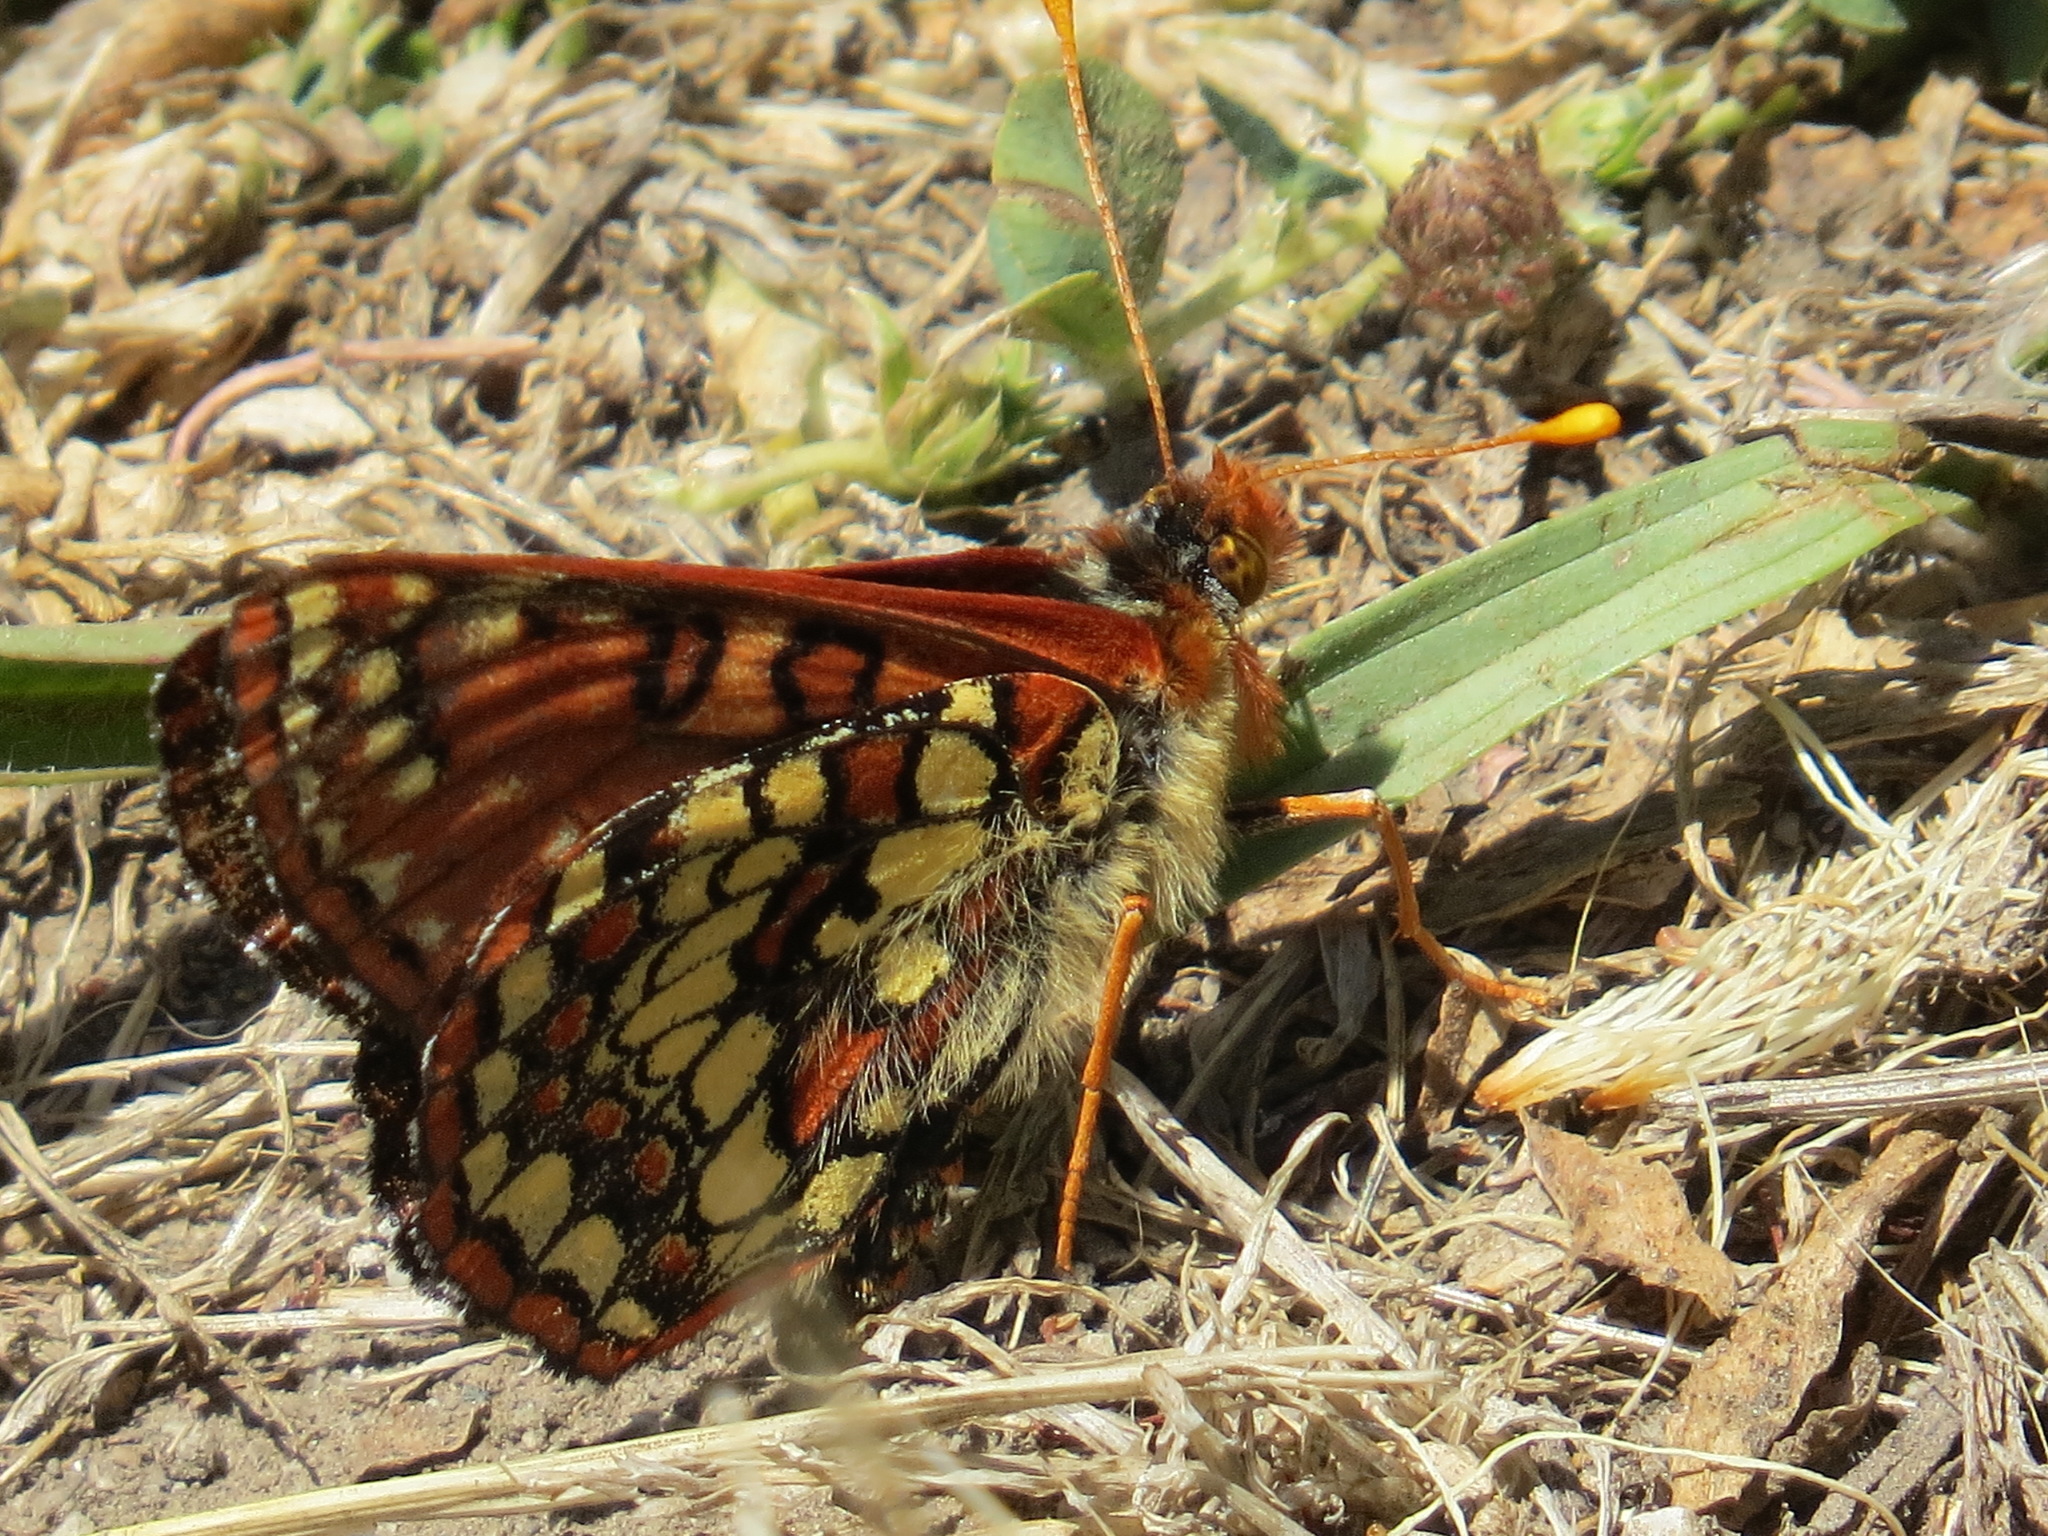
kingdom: Animalia
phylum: Arthropoda
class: Insecta
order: Lepidoptera
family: Nymphalidae
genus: Occidryas
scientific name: Occidryas chalcedona
